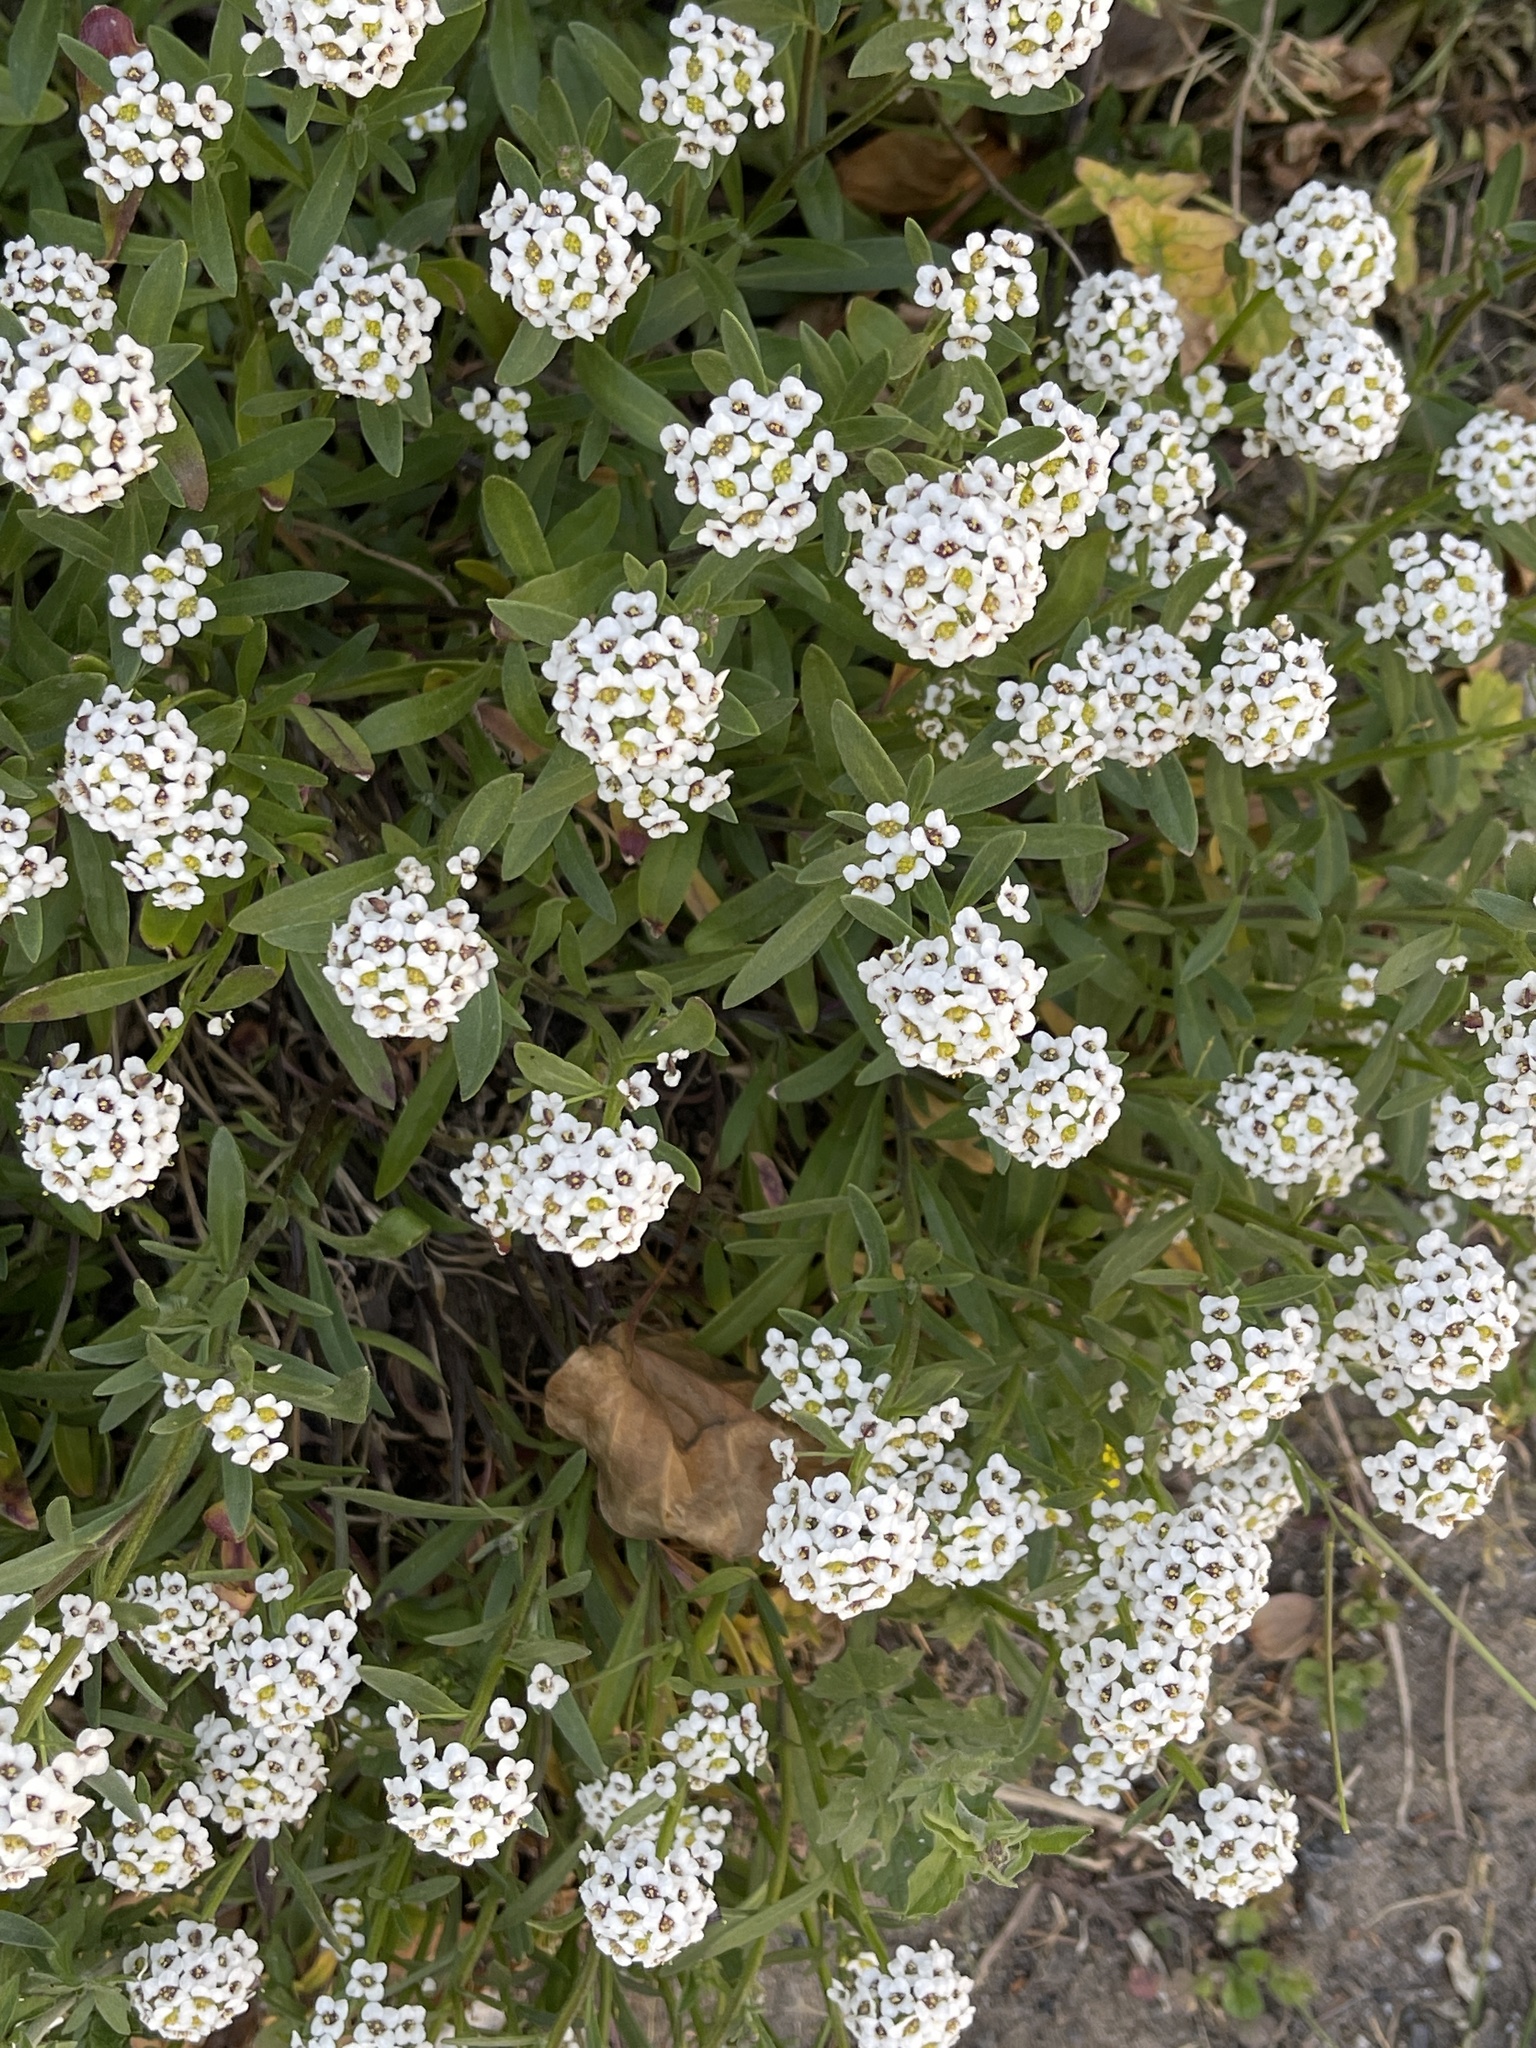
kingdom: Plantae
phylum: Tracheophyta
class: Magnoliopsida
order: Brassicales
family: Brassicaceae
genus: Lobularia
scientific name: Lobularia maritima
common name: Sweet alison
